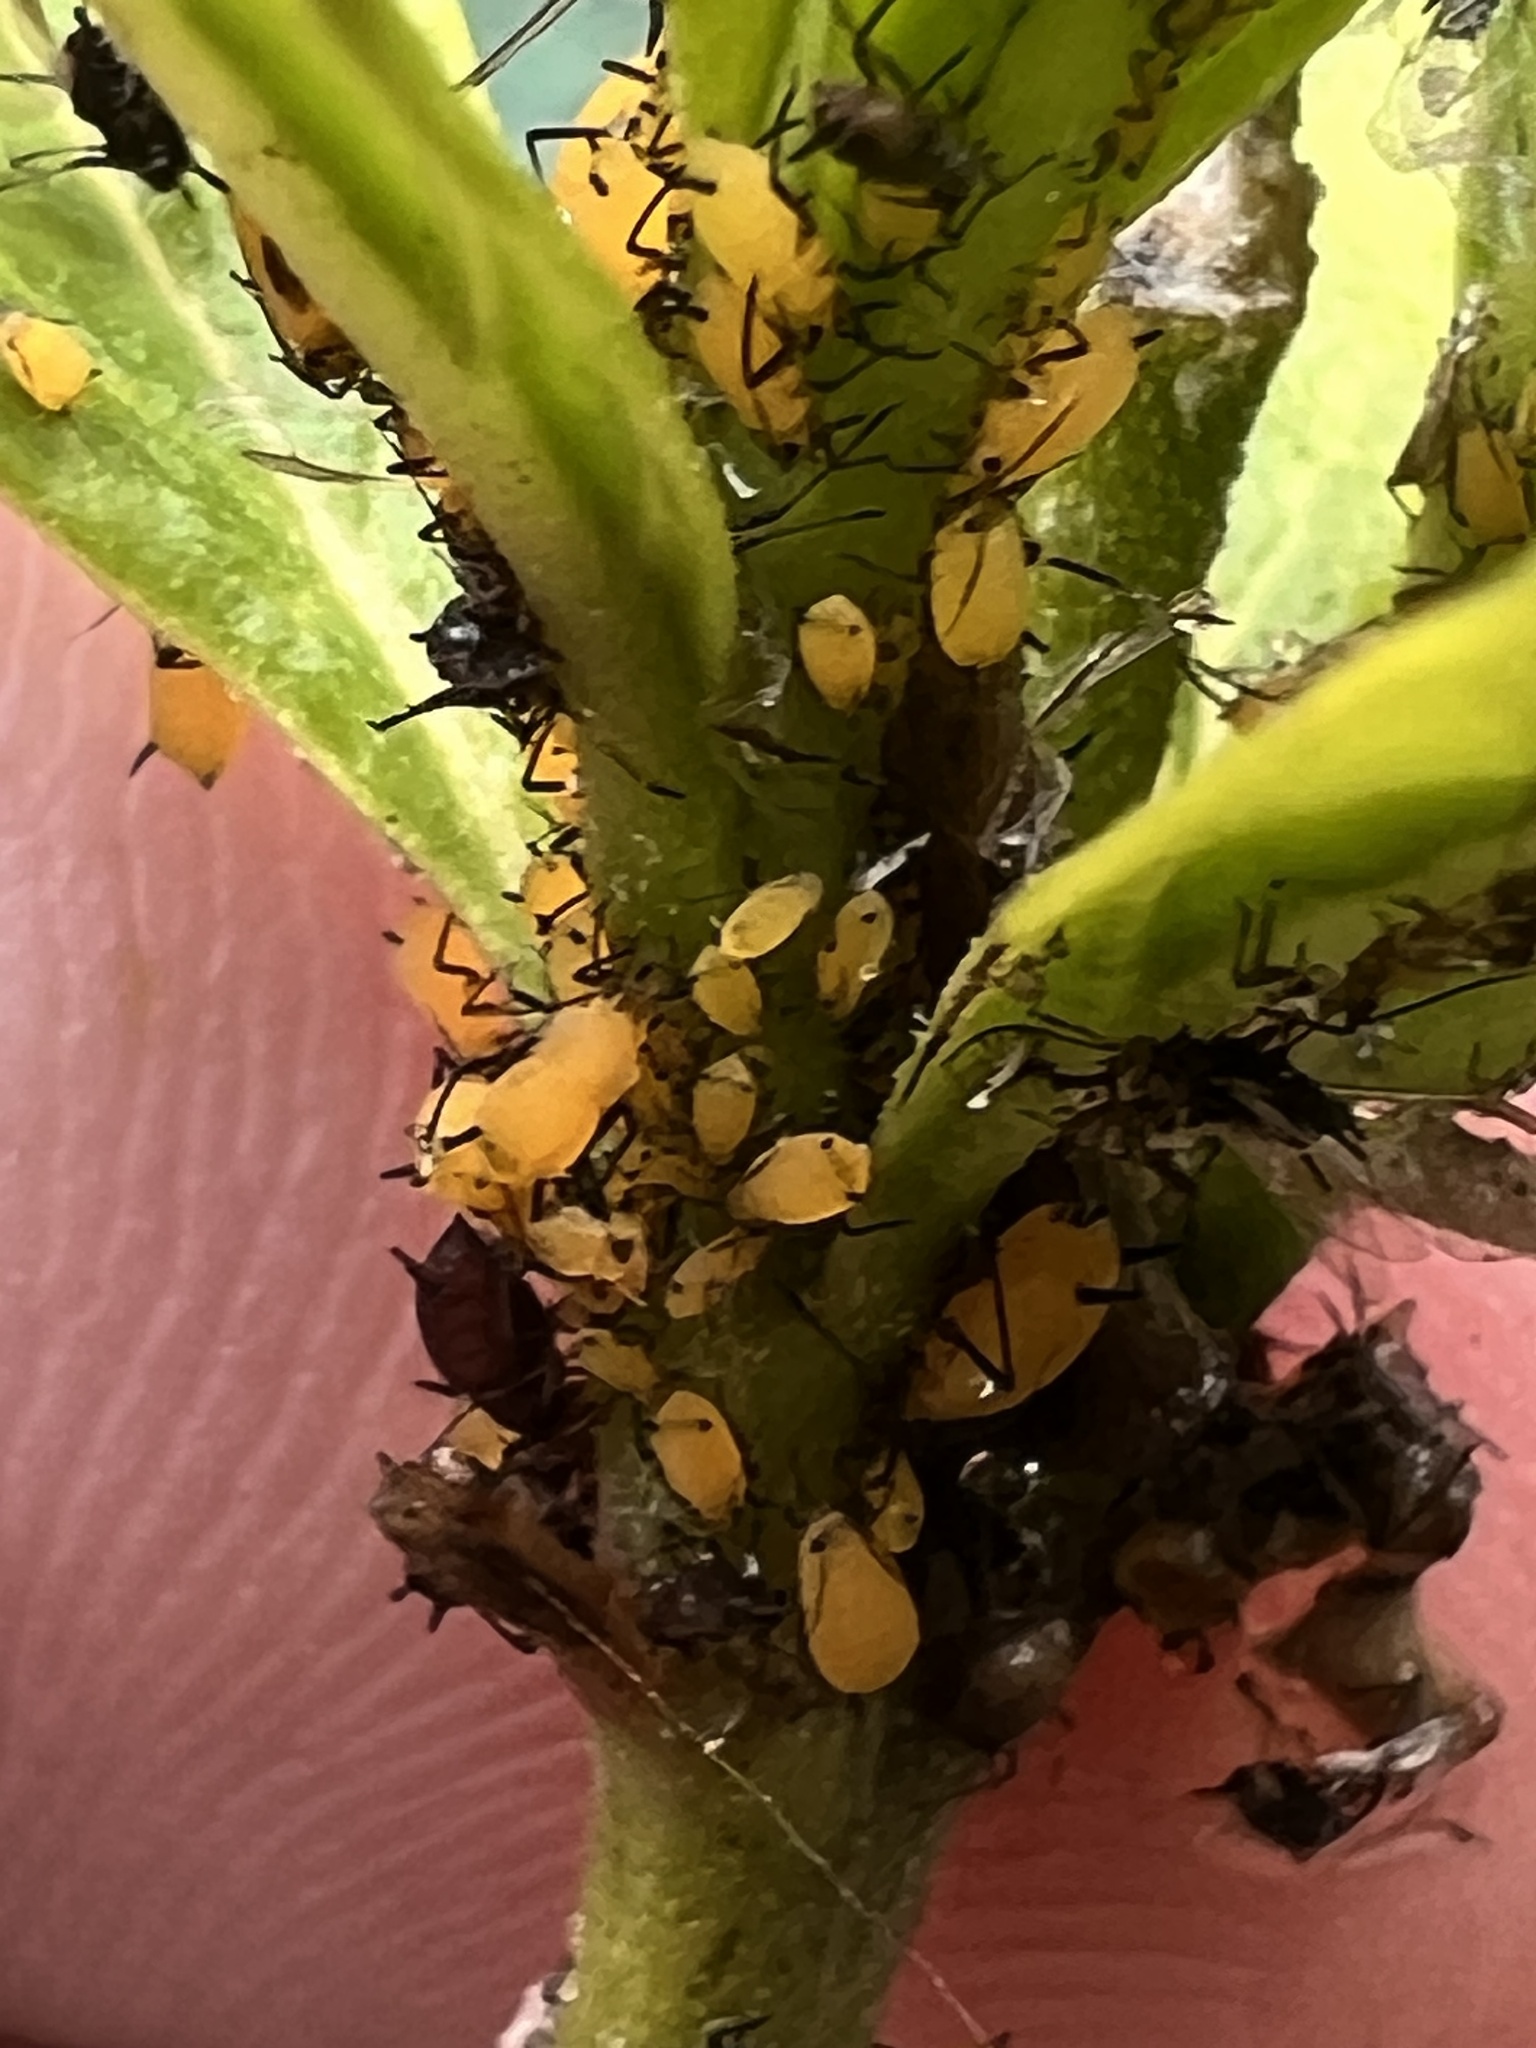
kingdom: Animalia
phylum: Arthropoda
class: Insecta
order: Hemiptera
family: Aphididae
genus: Aphis
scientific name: Aphis nerii
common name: Oleander aphid
